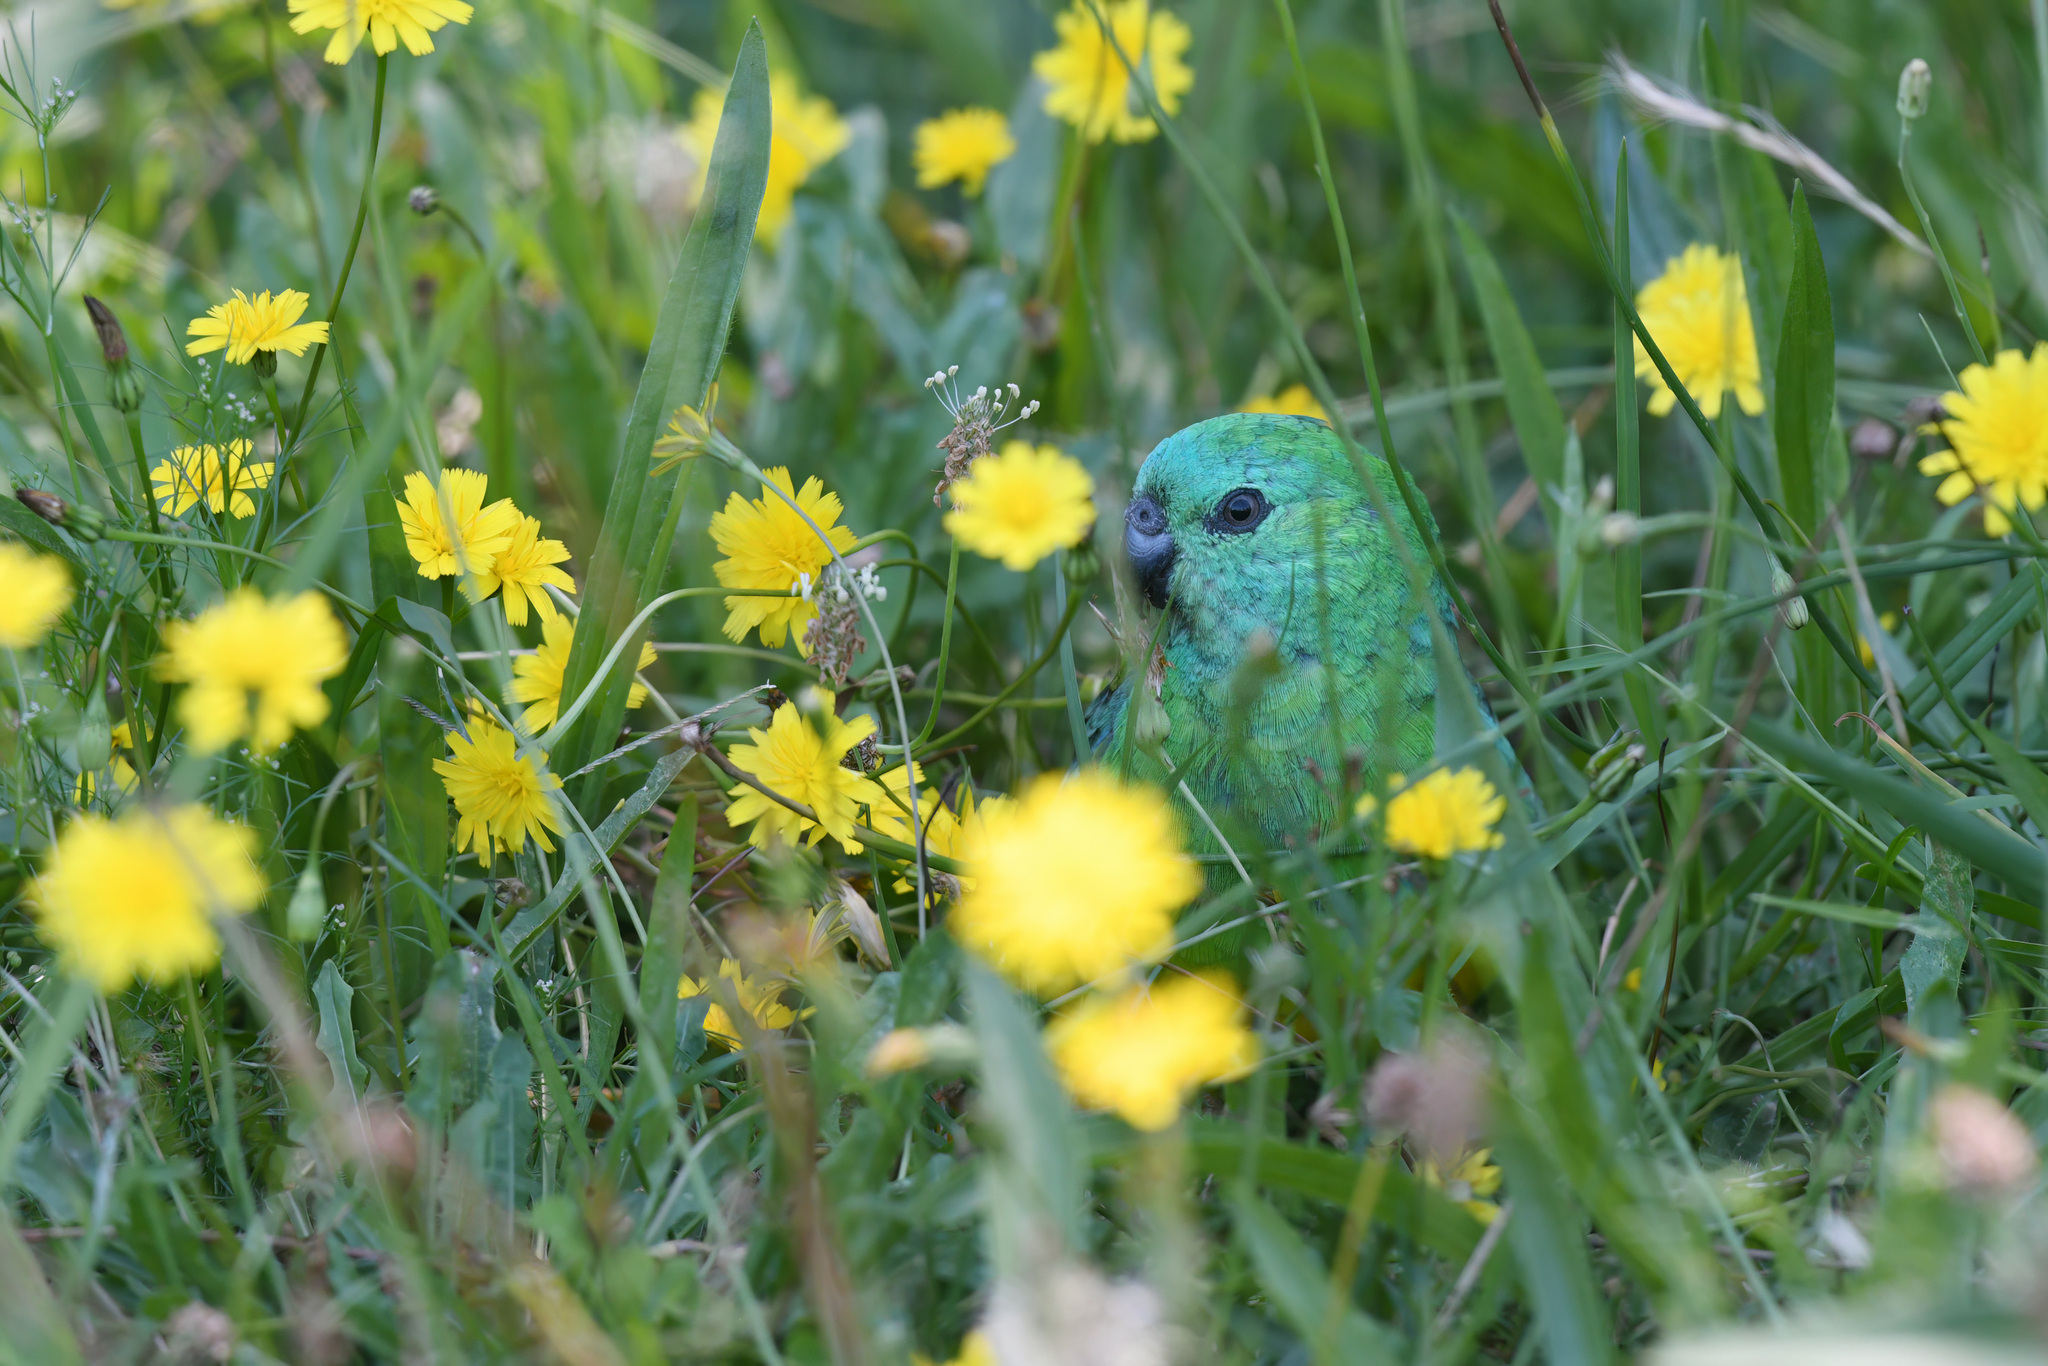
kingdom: Animalia
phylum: Chordata
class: Aves
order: Psittaciformes
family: Psittacidae
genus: Psephotus
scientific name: Psephotus haematonotus
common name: Red-rumped parrot
